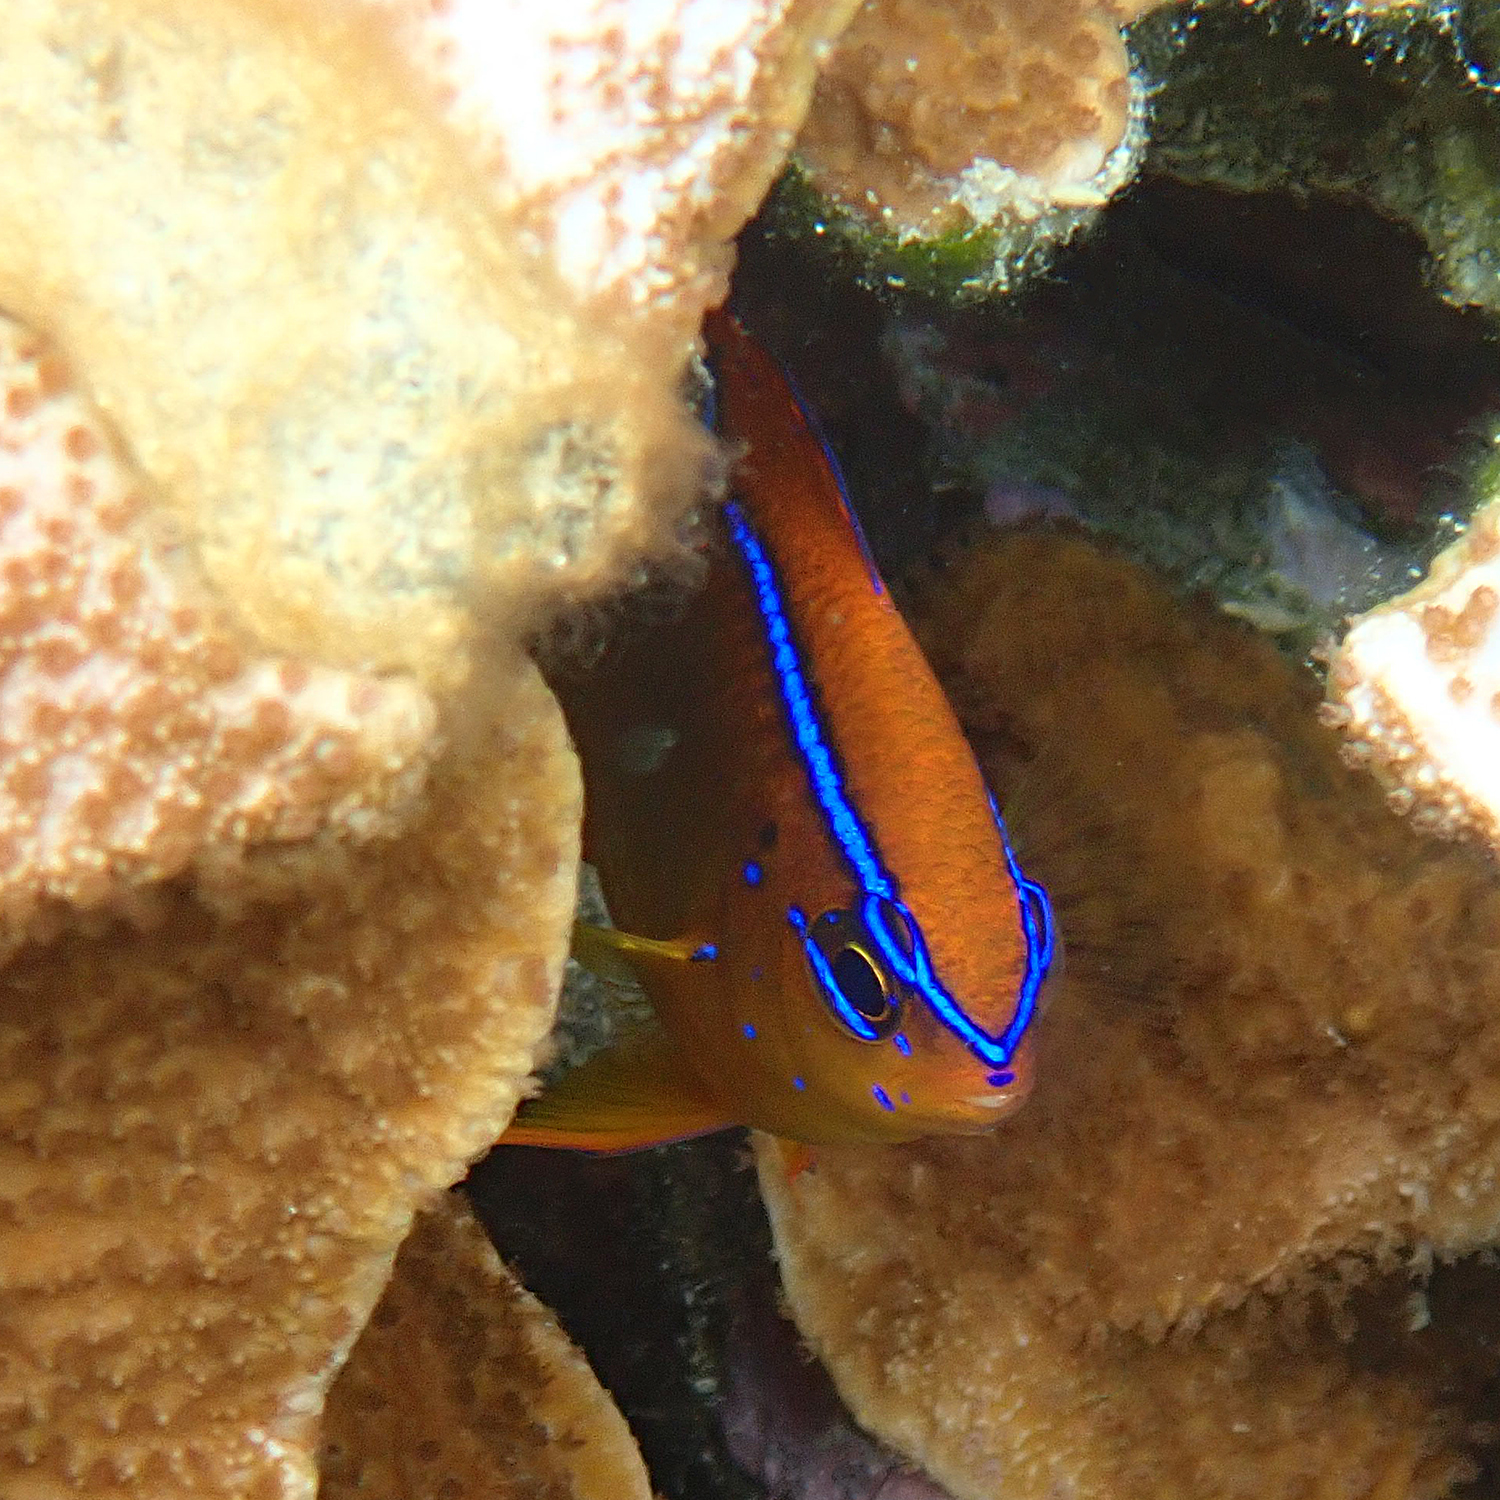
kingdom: Animalia
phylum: Chordata
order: Perciformes
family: Pomacentridae
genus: Neoglyphidodon
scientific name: Neoglyphidodon polyacanthus
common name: Multi-spined damsel
